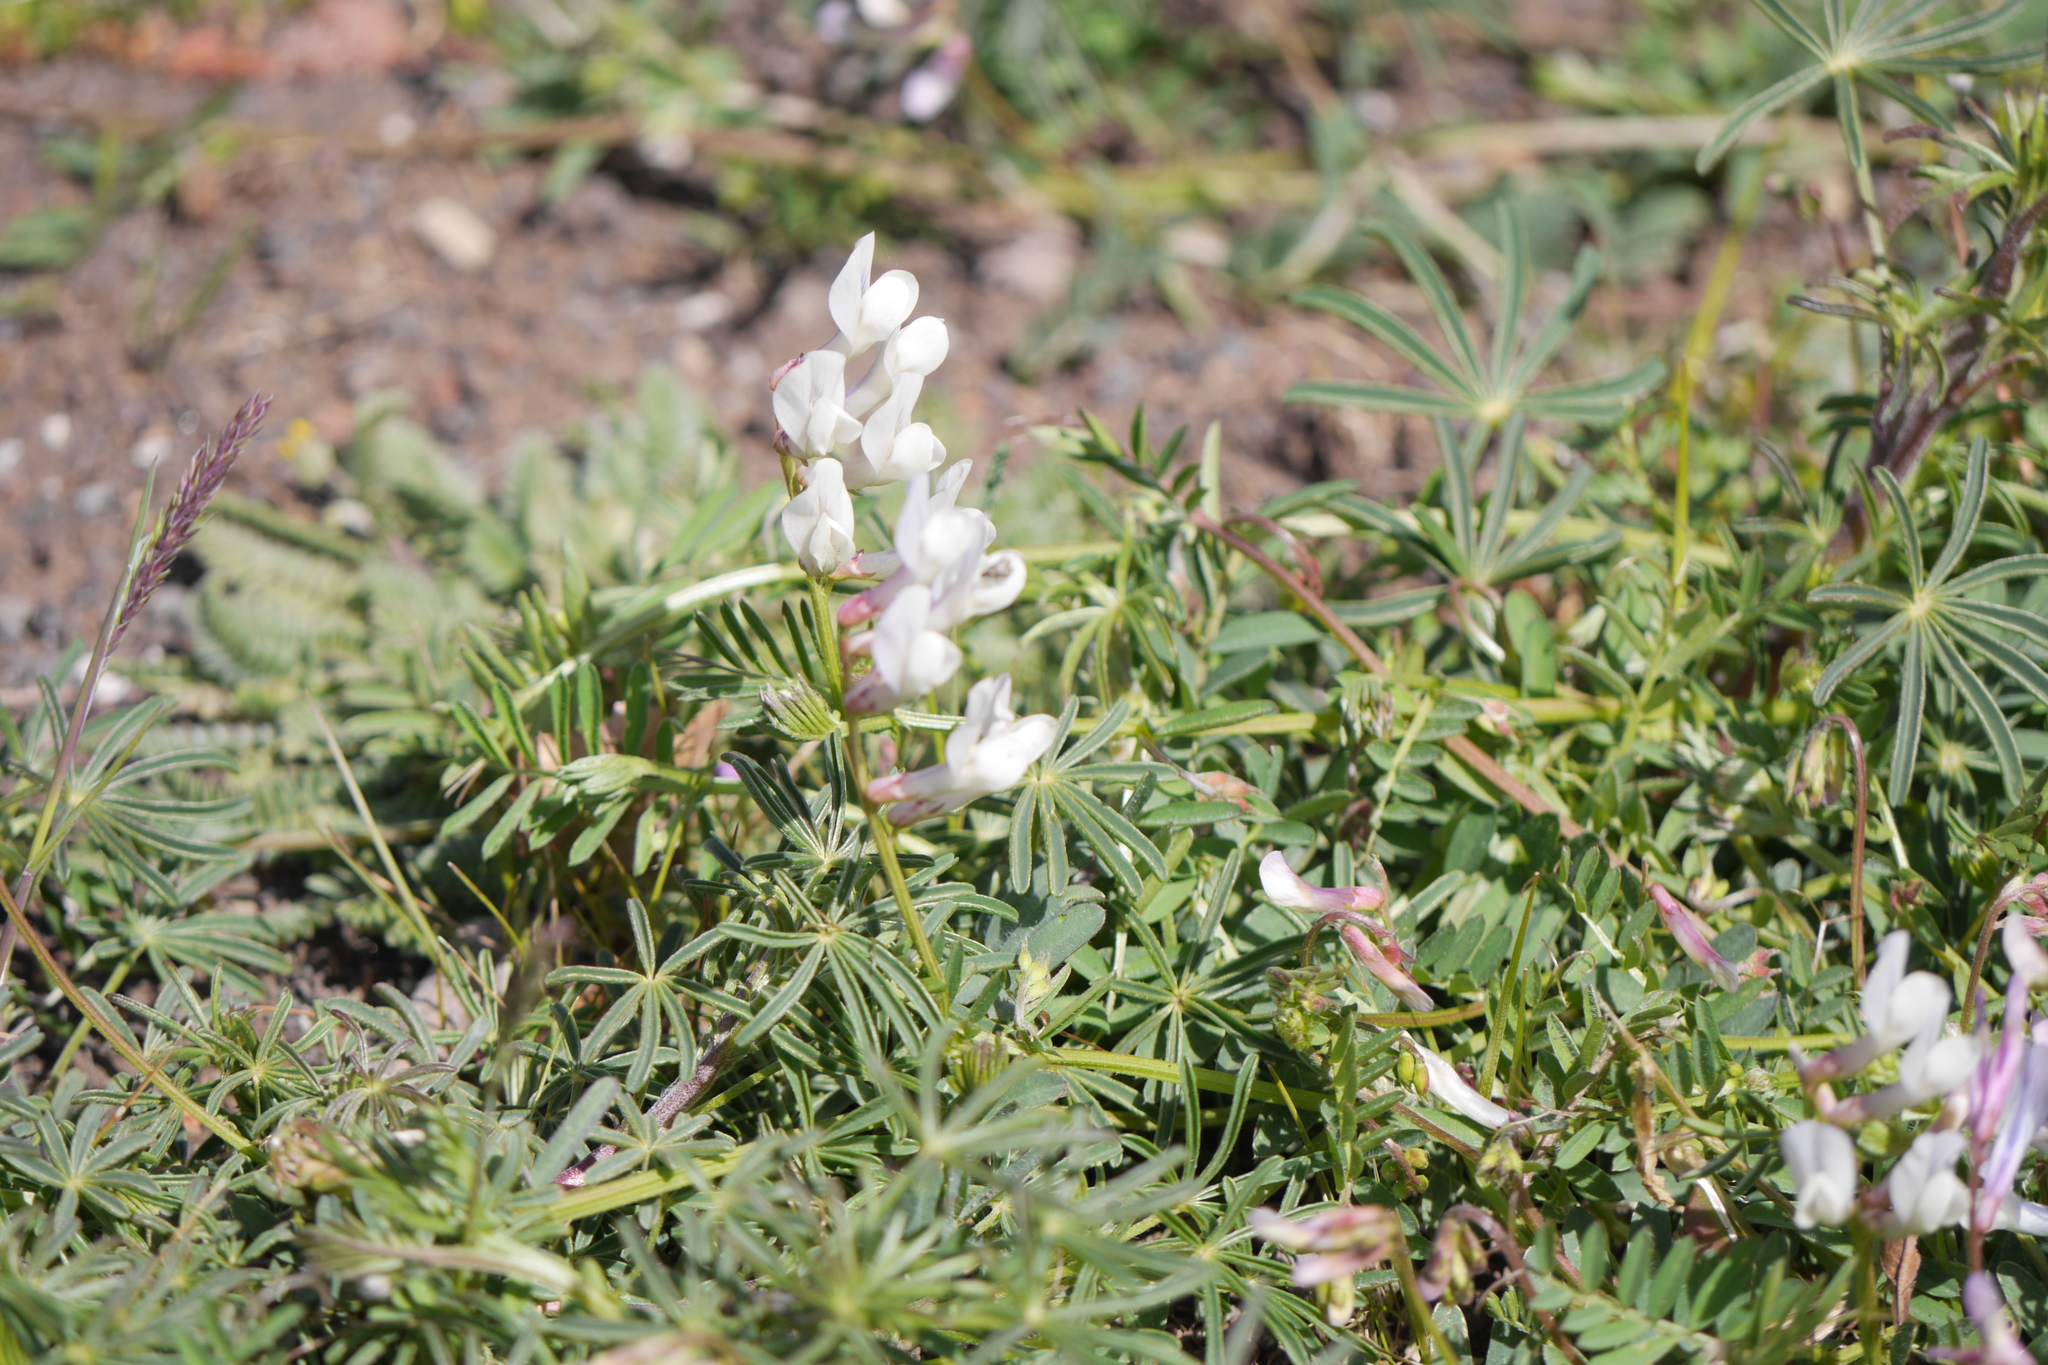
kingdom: Plantae
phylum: Tracheophyta
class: Magnoliopsida
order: Fabales
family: Fabaceae
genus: Lupinus
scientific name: Lupinus albus
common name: White lupin
